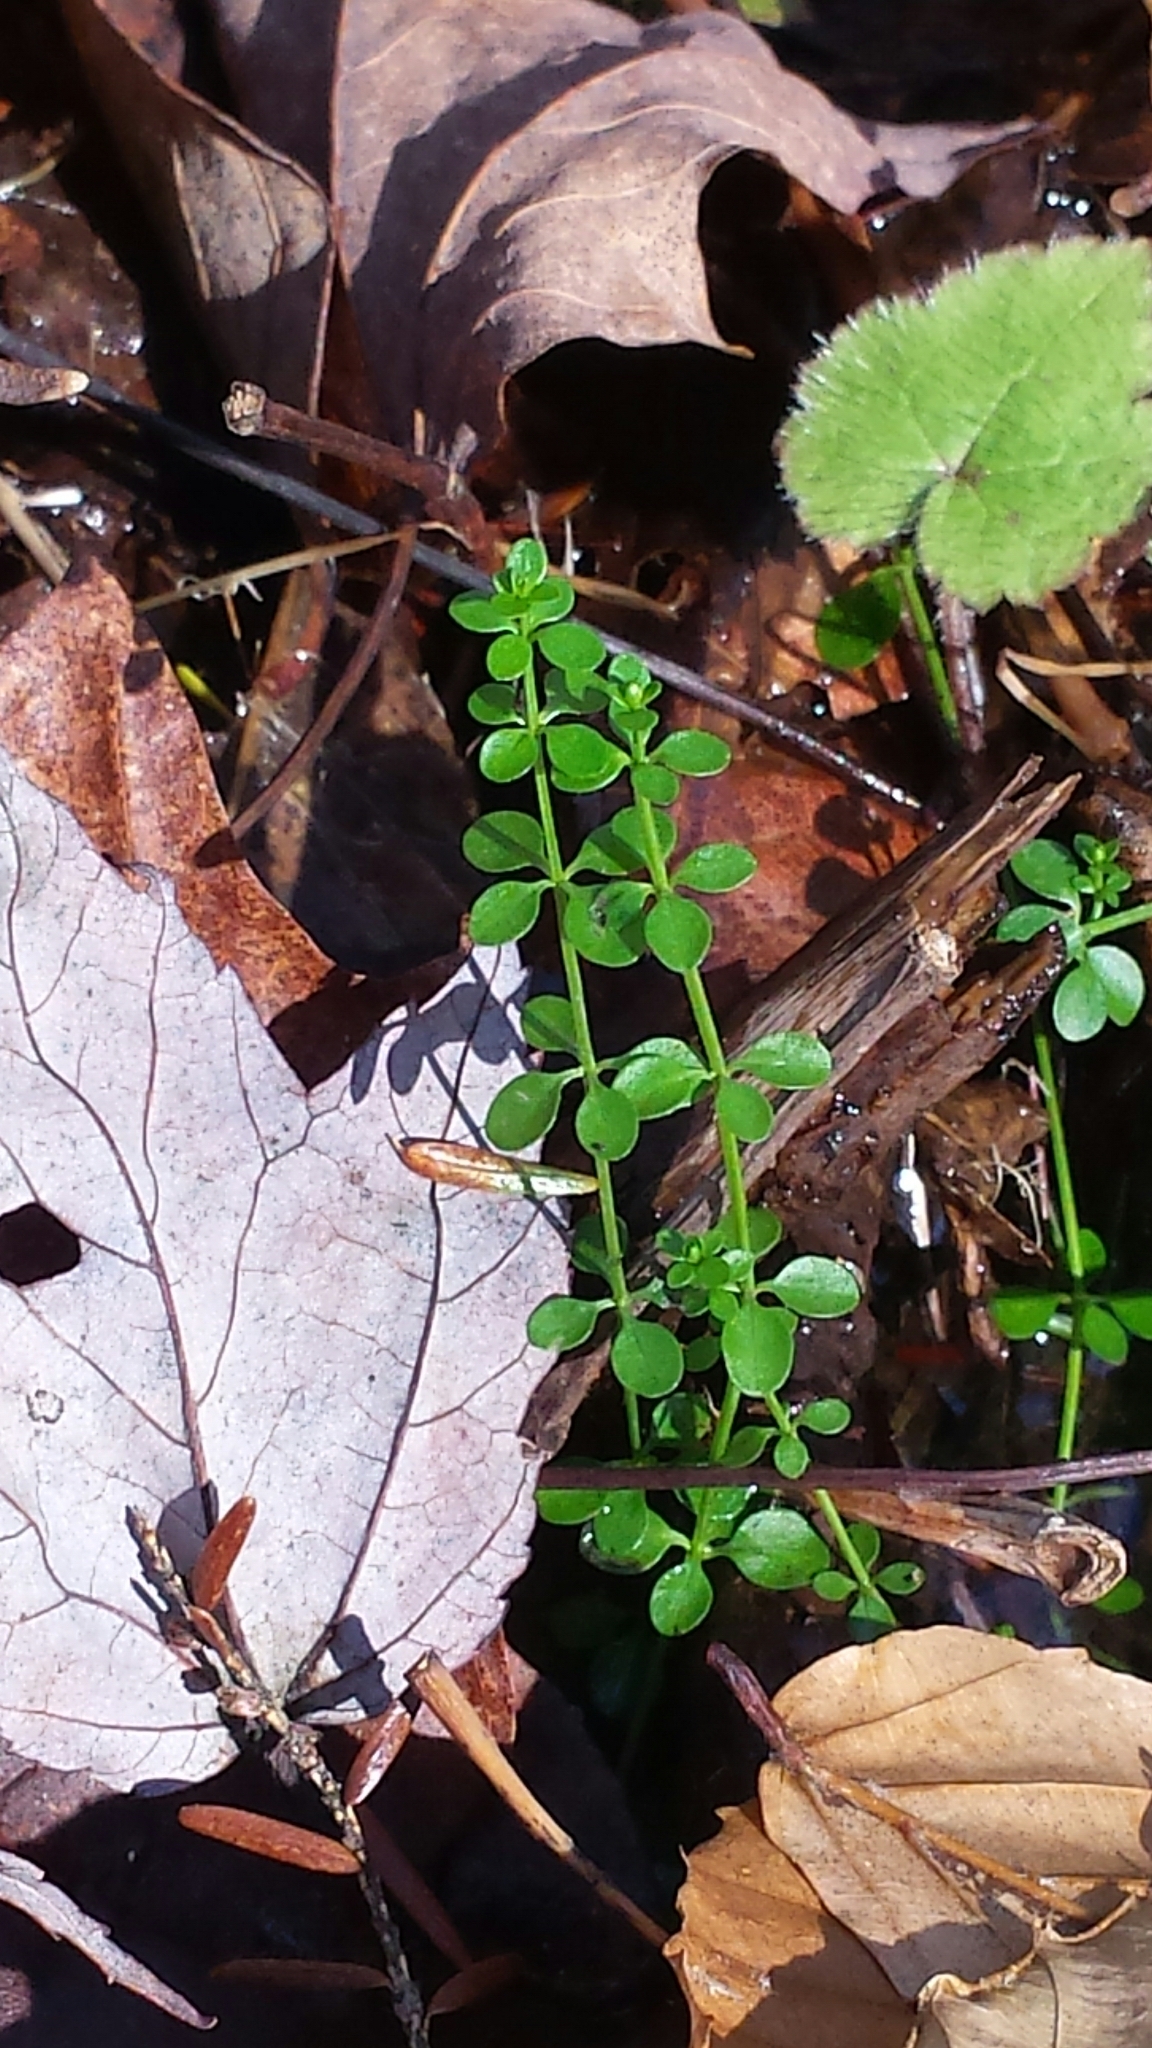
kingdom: Plantae
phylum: Tracheophyta
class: Magnoliopsida
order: Gentianales
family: Rubiaceae
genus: Galium
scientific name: Galium palustre
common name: Common marsh-bedstraw
